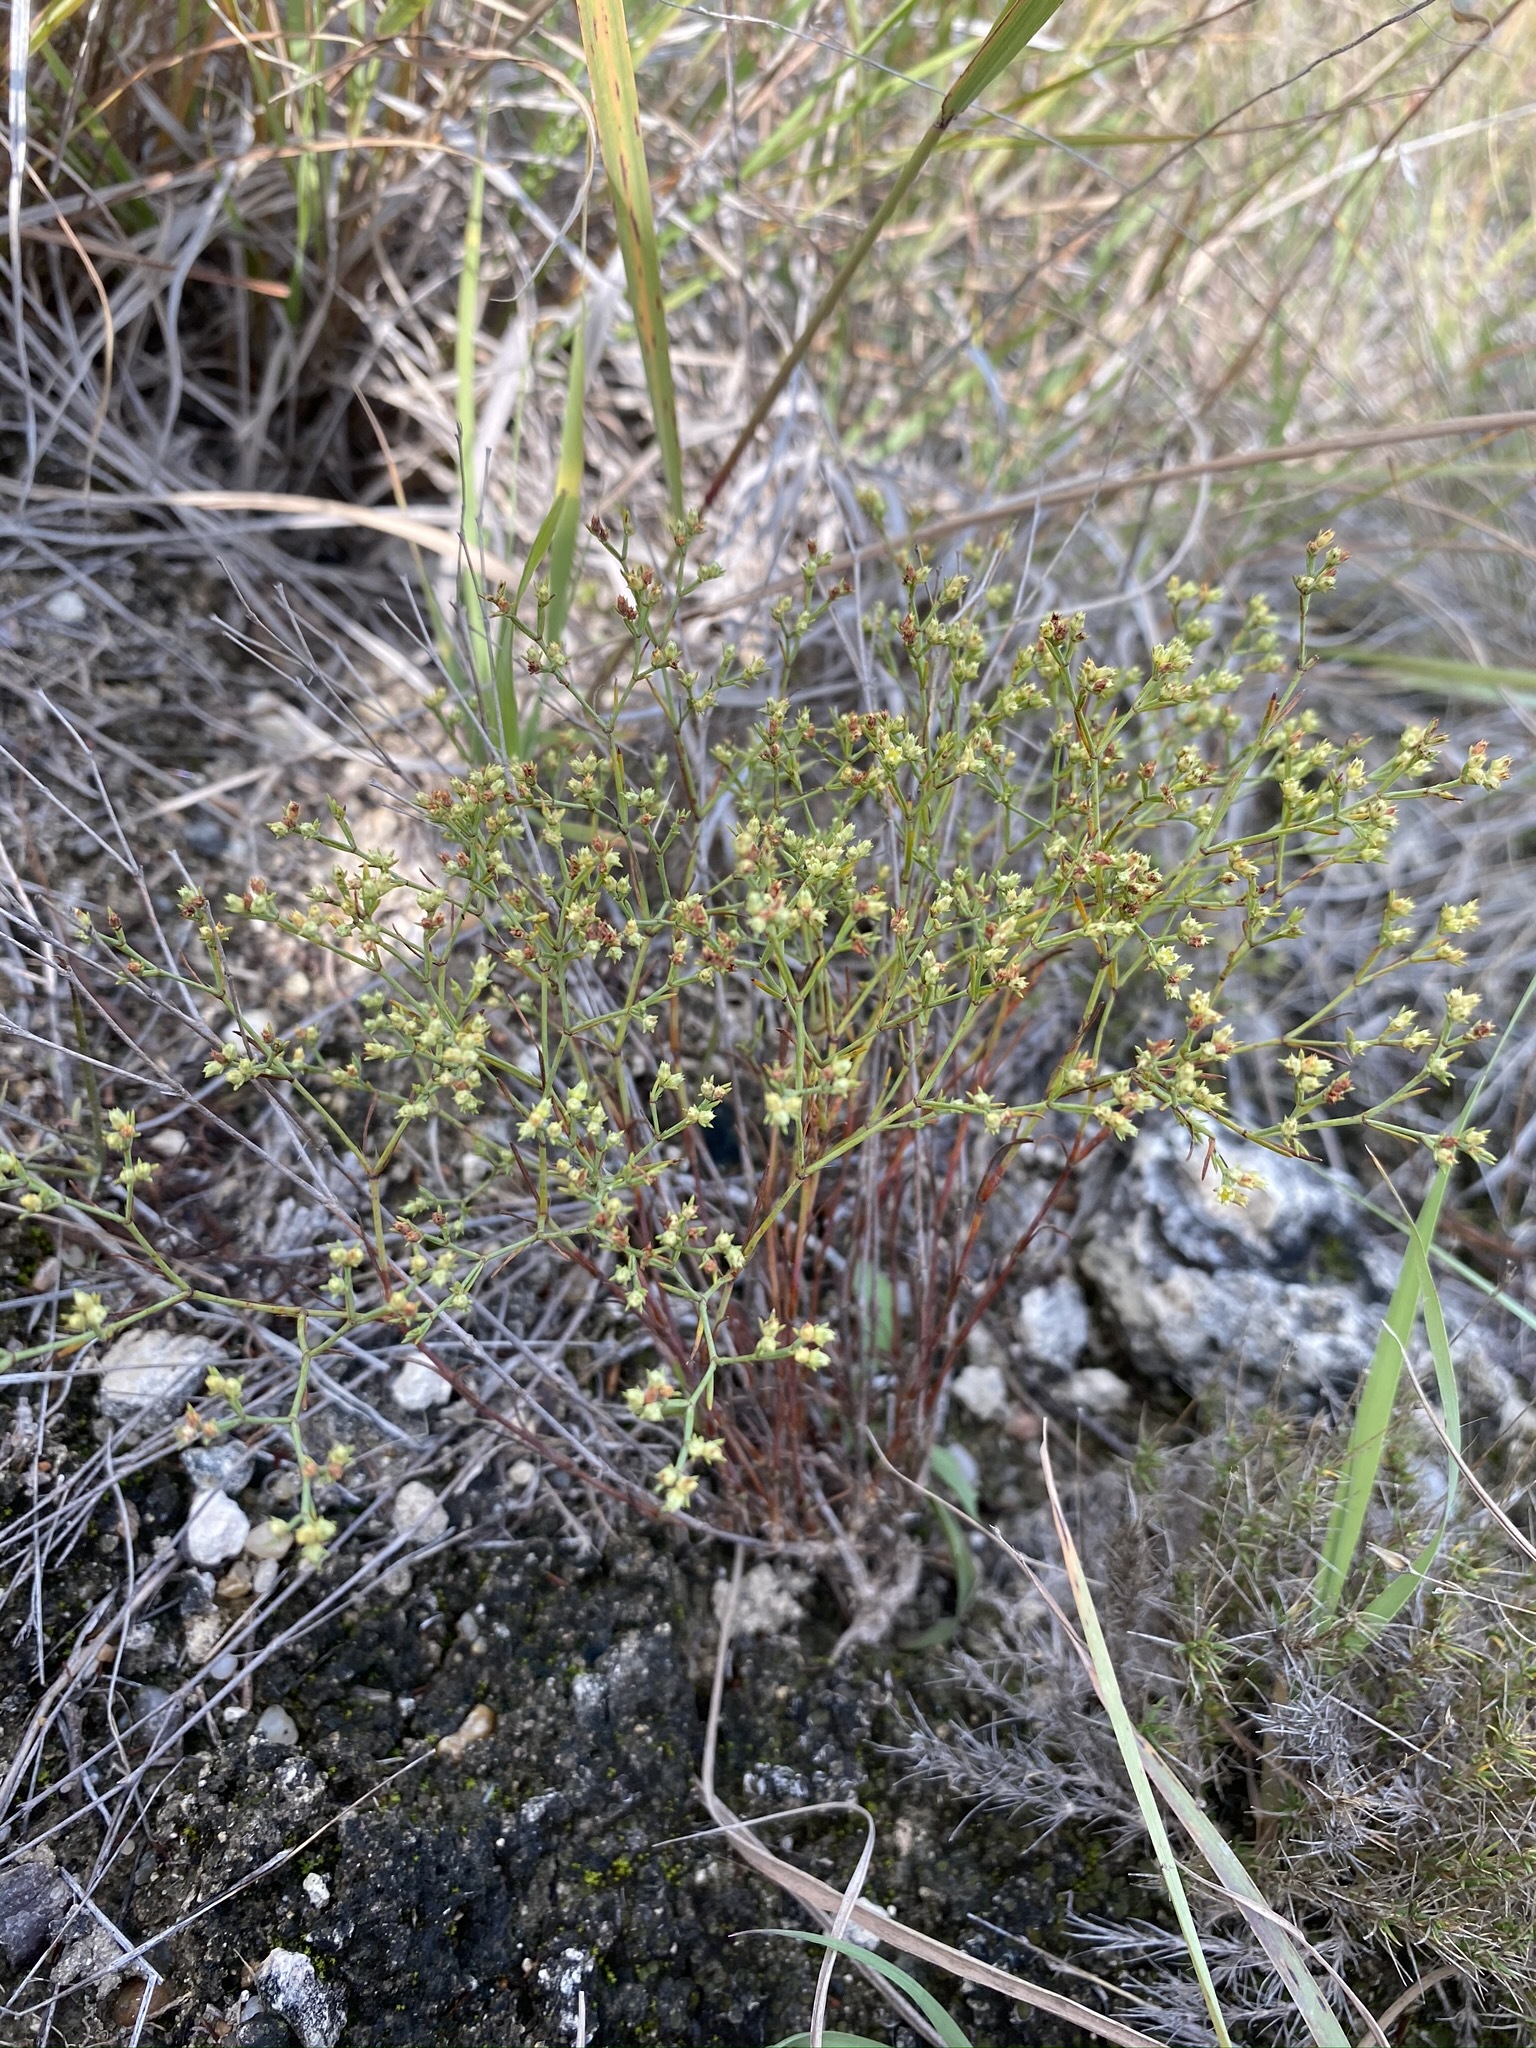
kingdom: Plantae
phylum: Tracheophyta
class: Magnoliopsida
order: Caryophyllales
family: Caryophyllaceae
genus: Paronychia
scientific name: Paronychia jamesii
